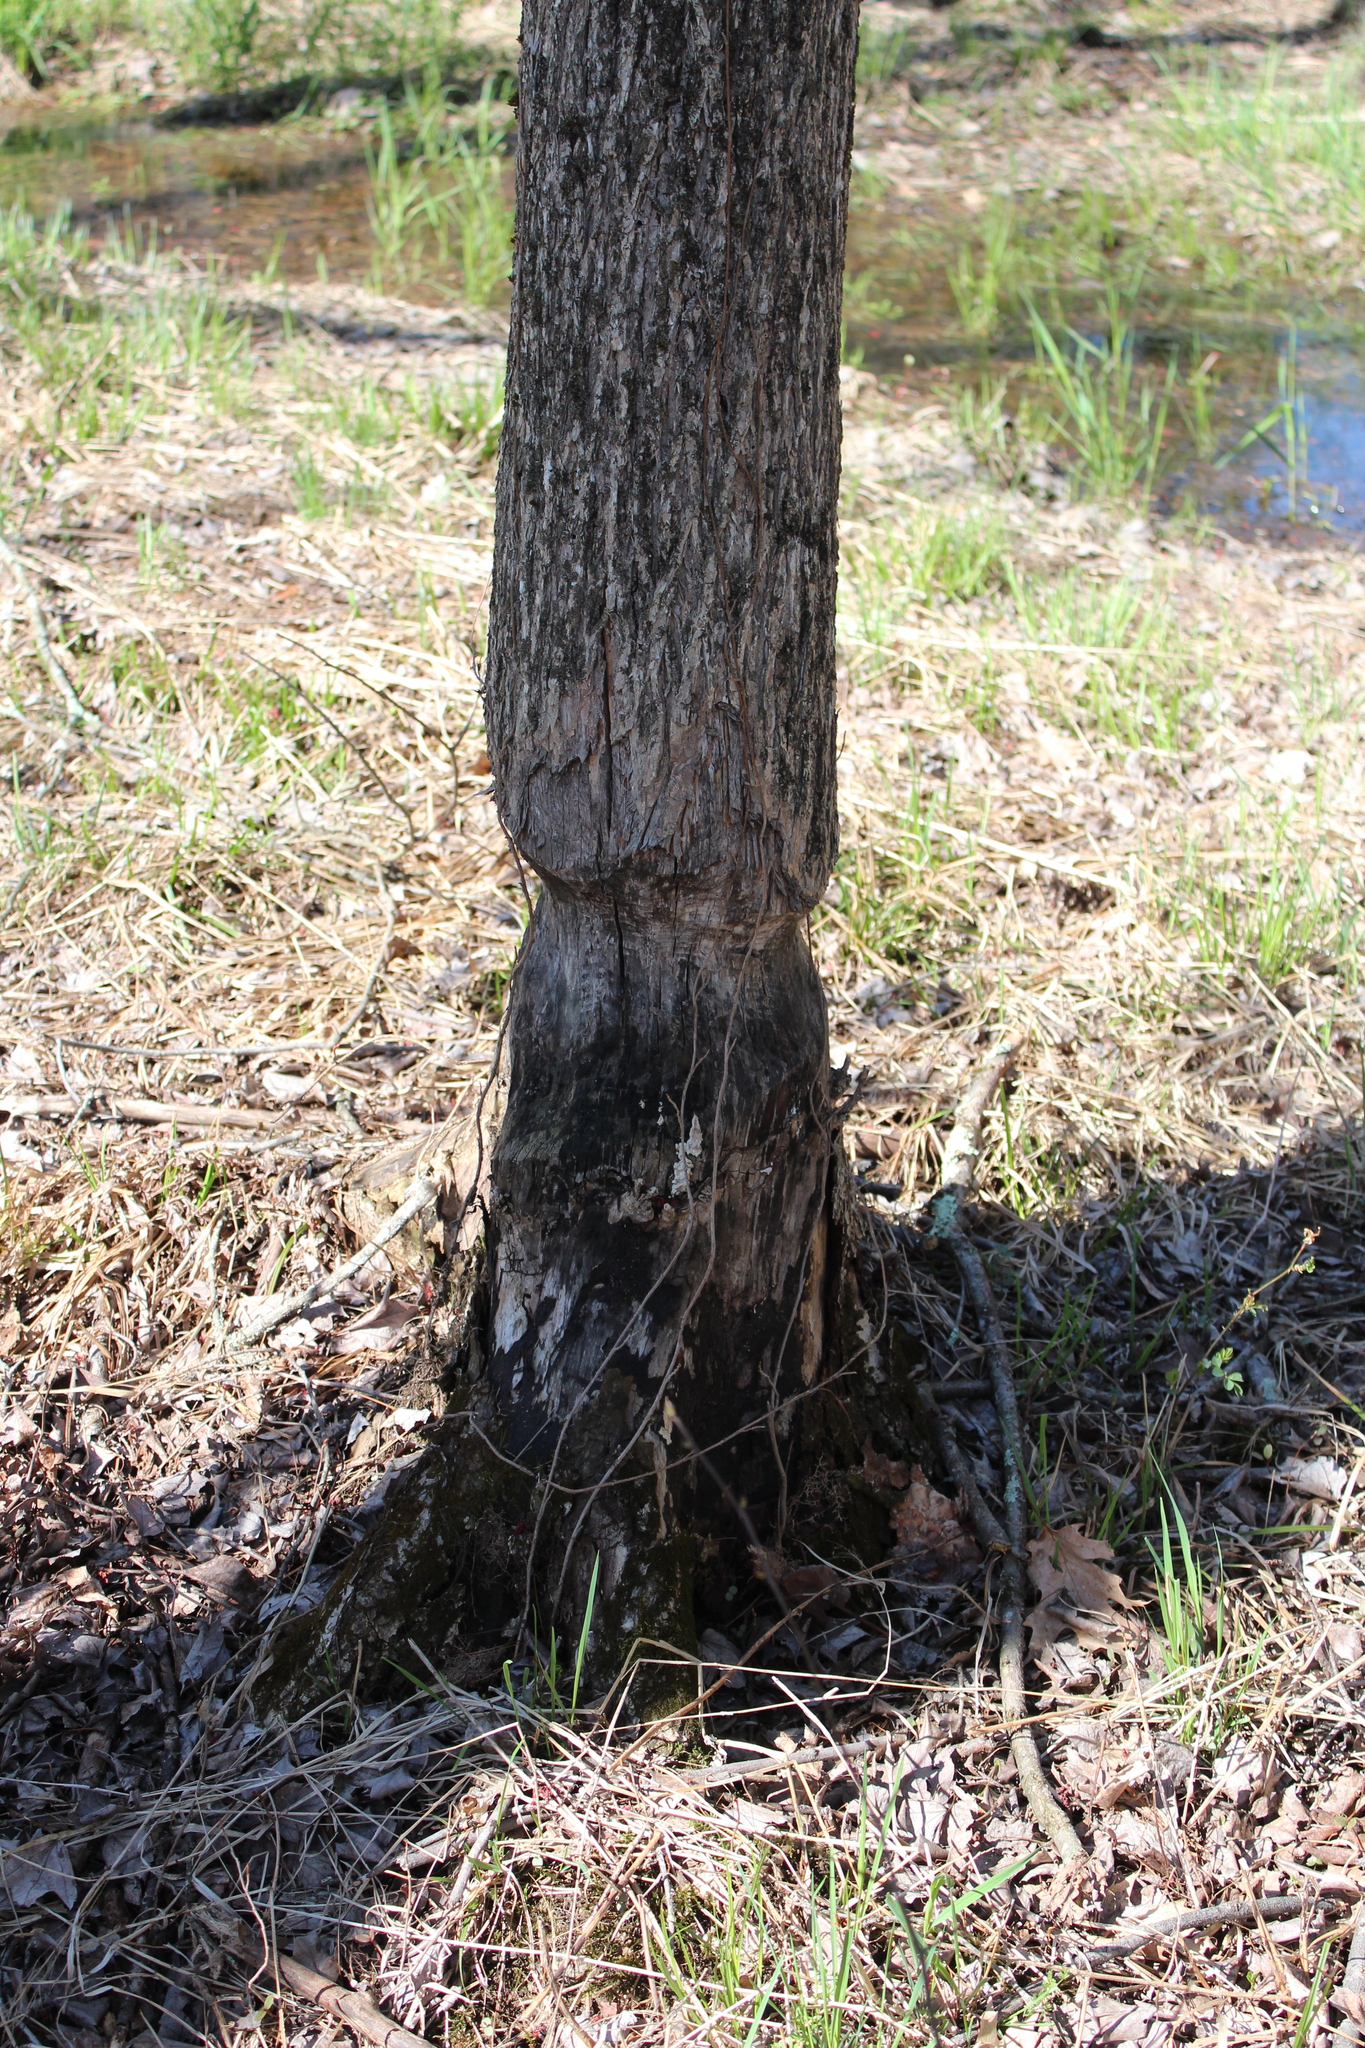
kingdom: Animalia
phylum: Chordata
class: Mammalia
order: Rodentia
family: Castoridae
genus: Castor
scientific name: Castor canadensis
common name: American beaver
